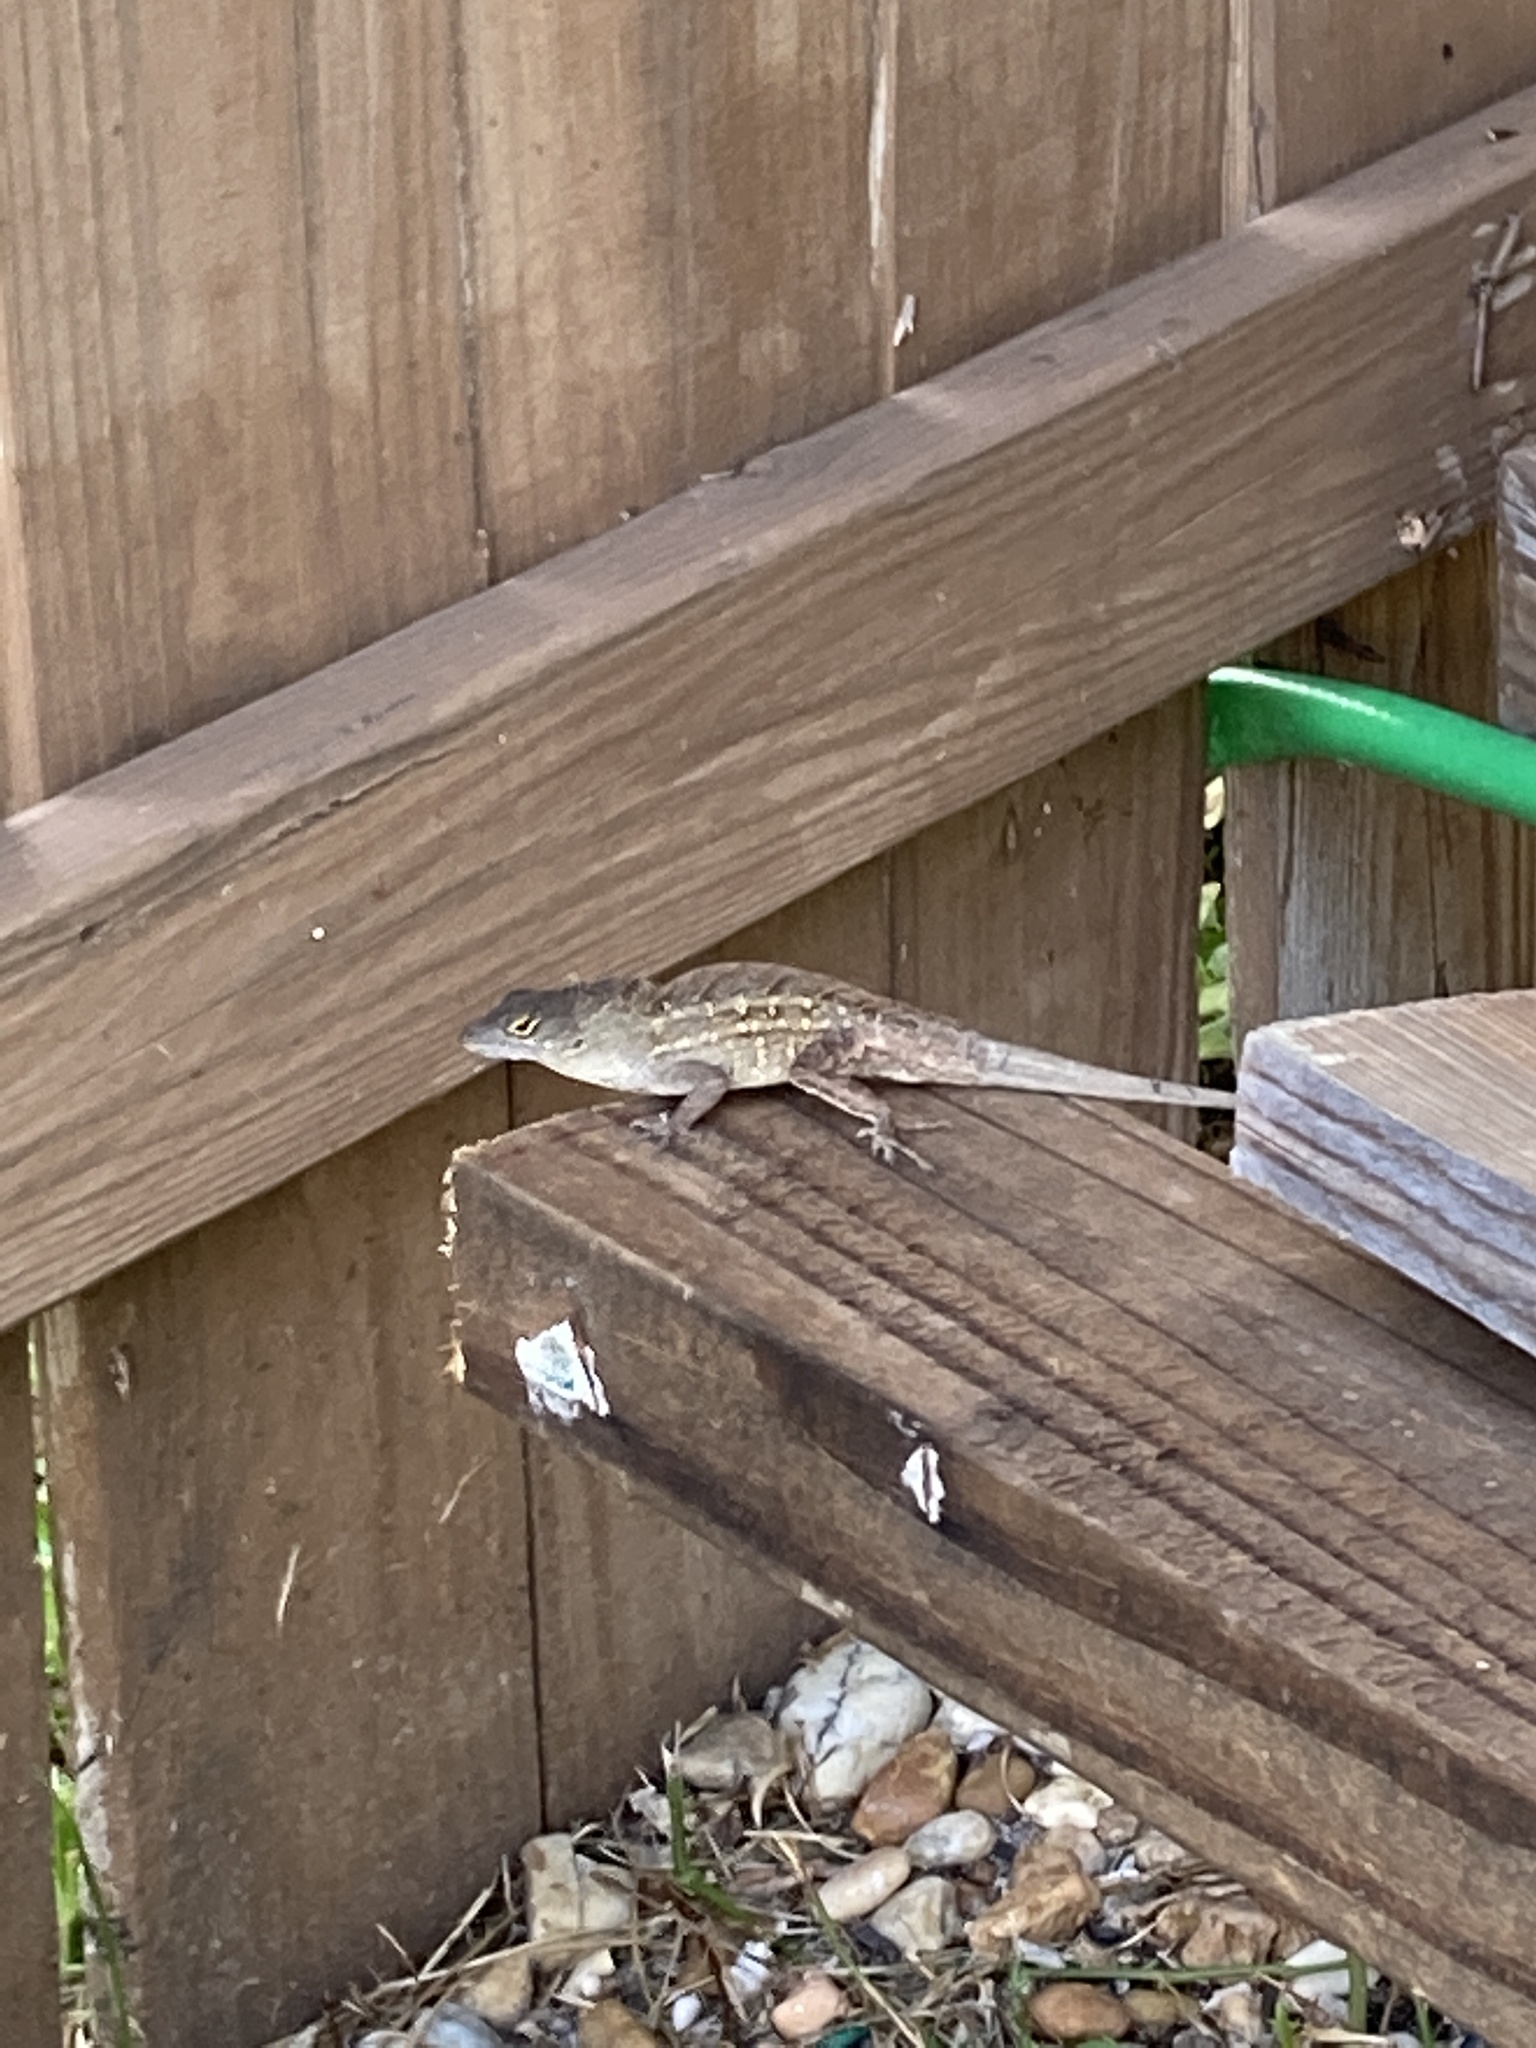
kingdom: Animalia
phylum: Chordata
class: Squamata
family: Dactyloidae
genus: Anolis
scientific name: Anolis sagrei
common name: Brown anole
